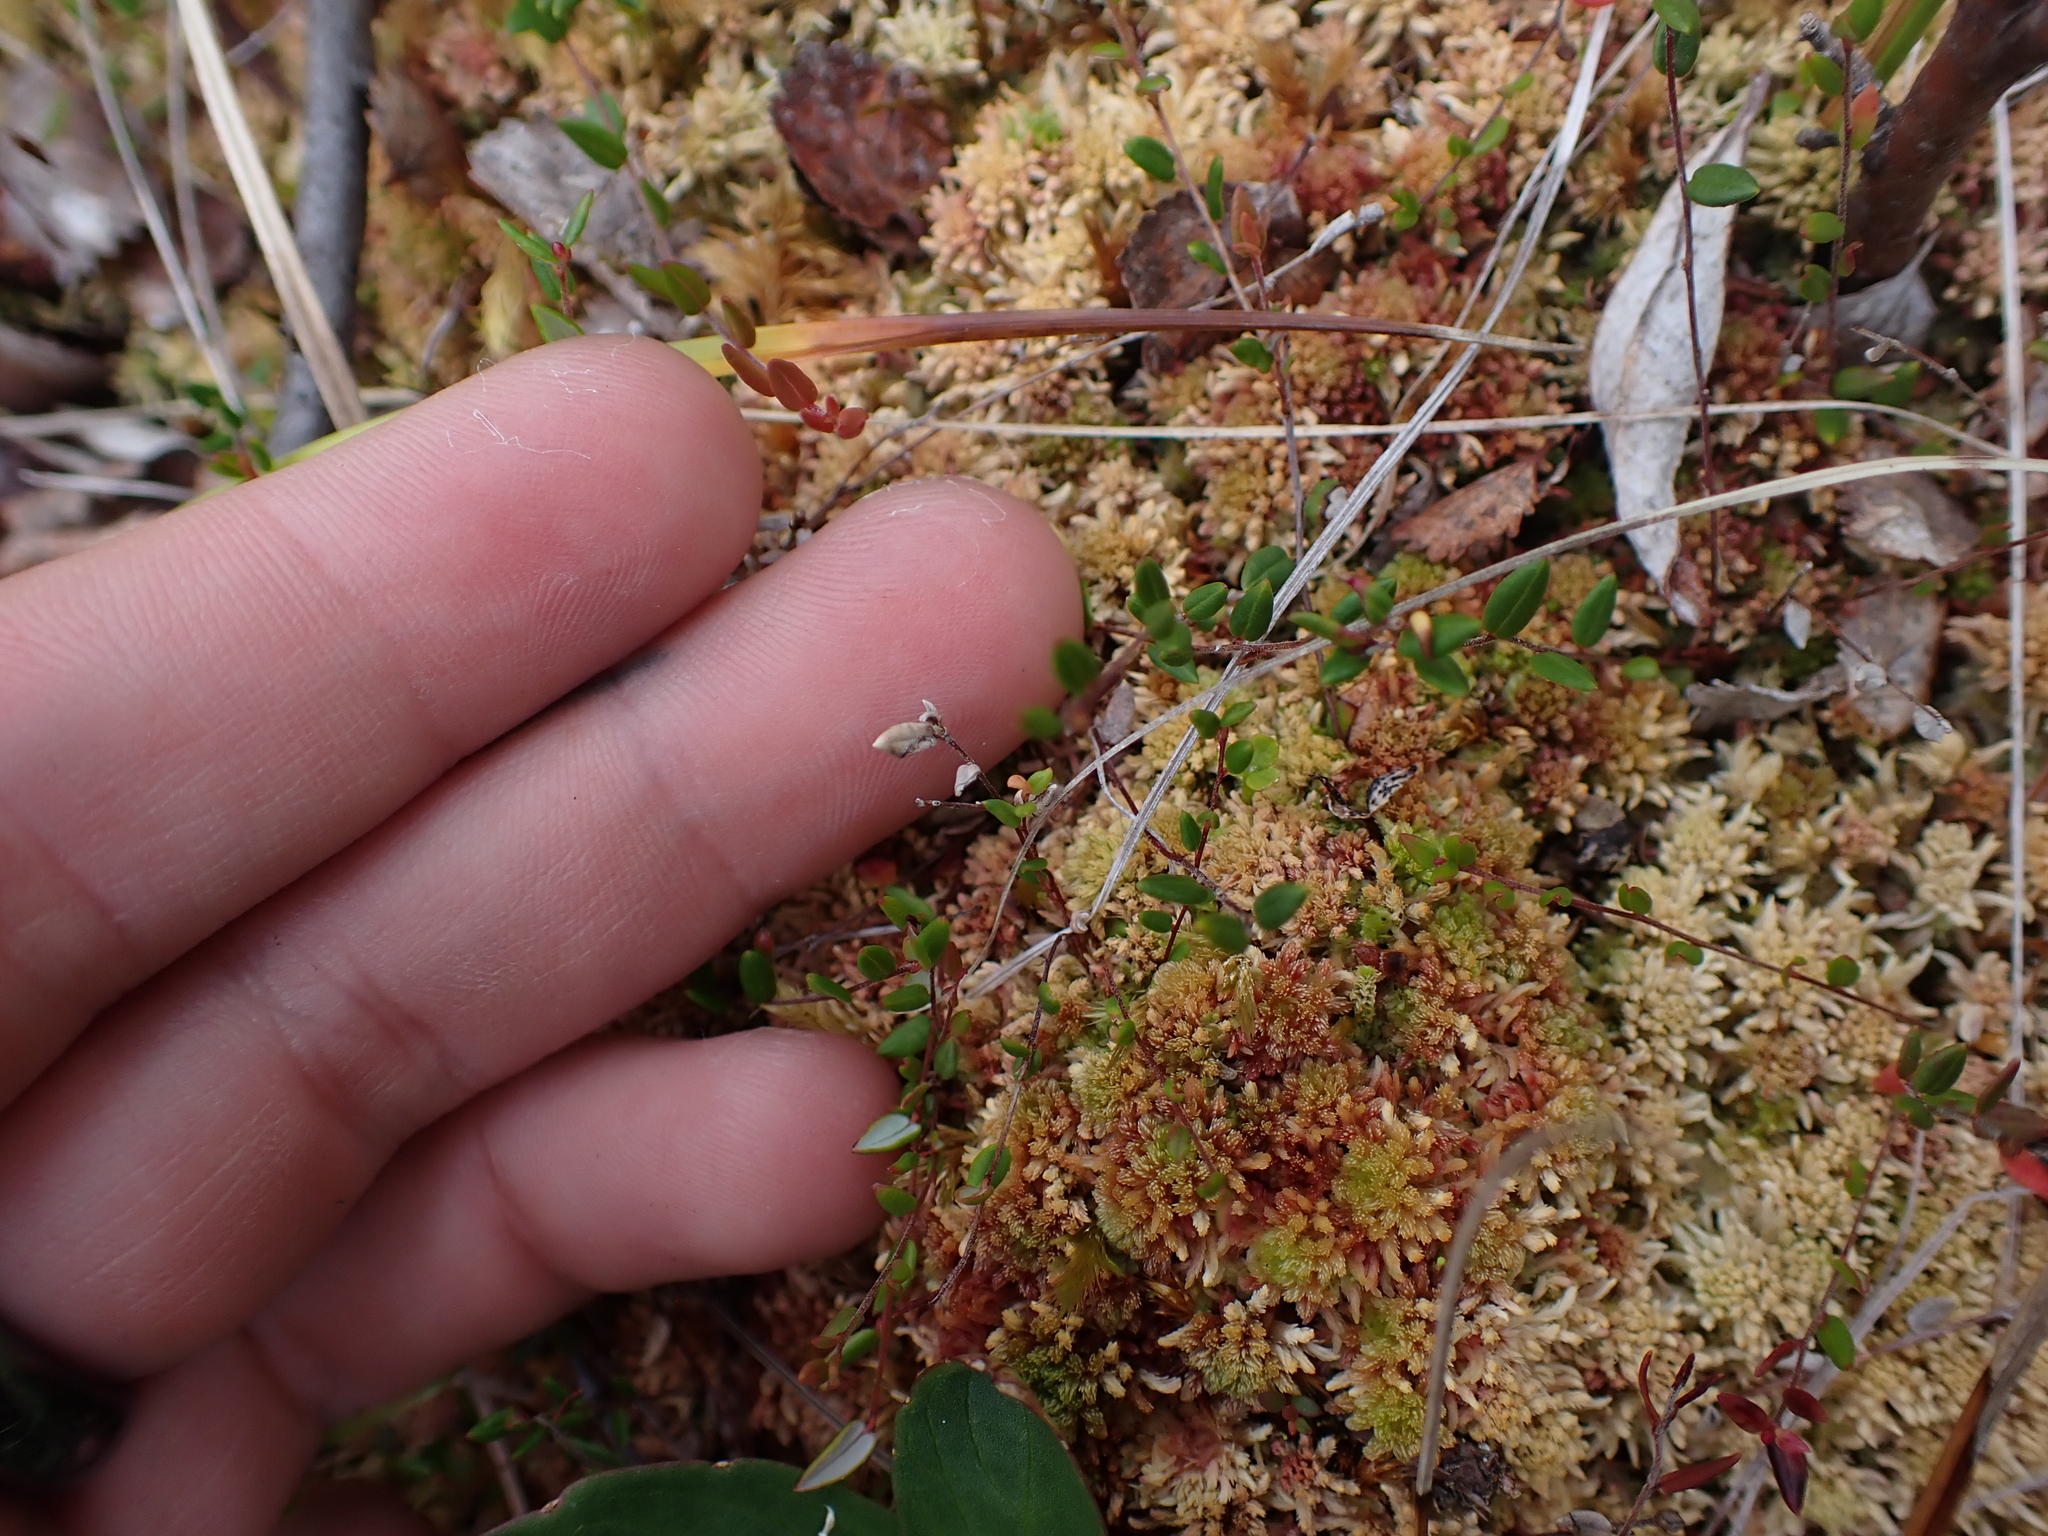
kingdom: Plantae
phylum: Tracheophyta
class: Magnoliopsida
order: Ericales
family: Ericaceae
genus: Vaccinium
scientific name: Vaccinium oxycoccos
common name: Cranberry
